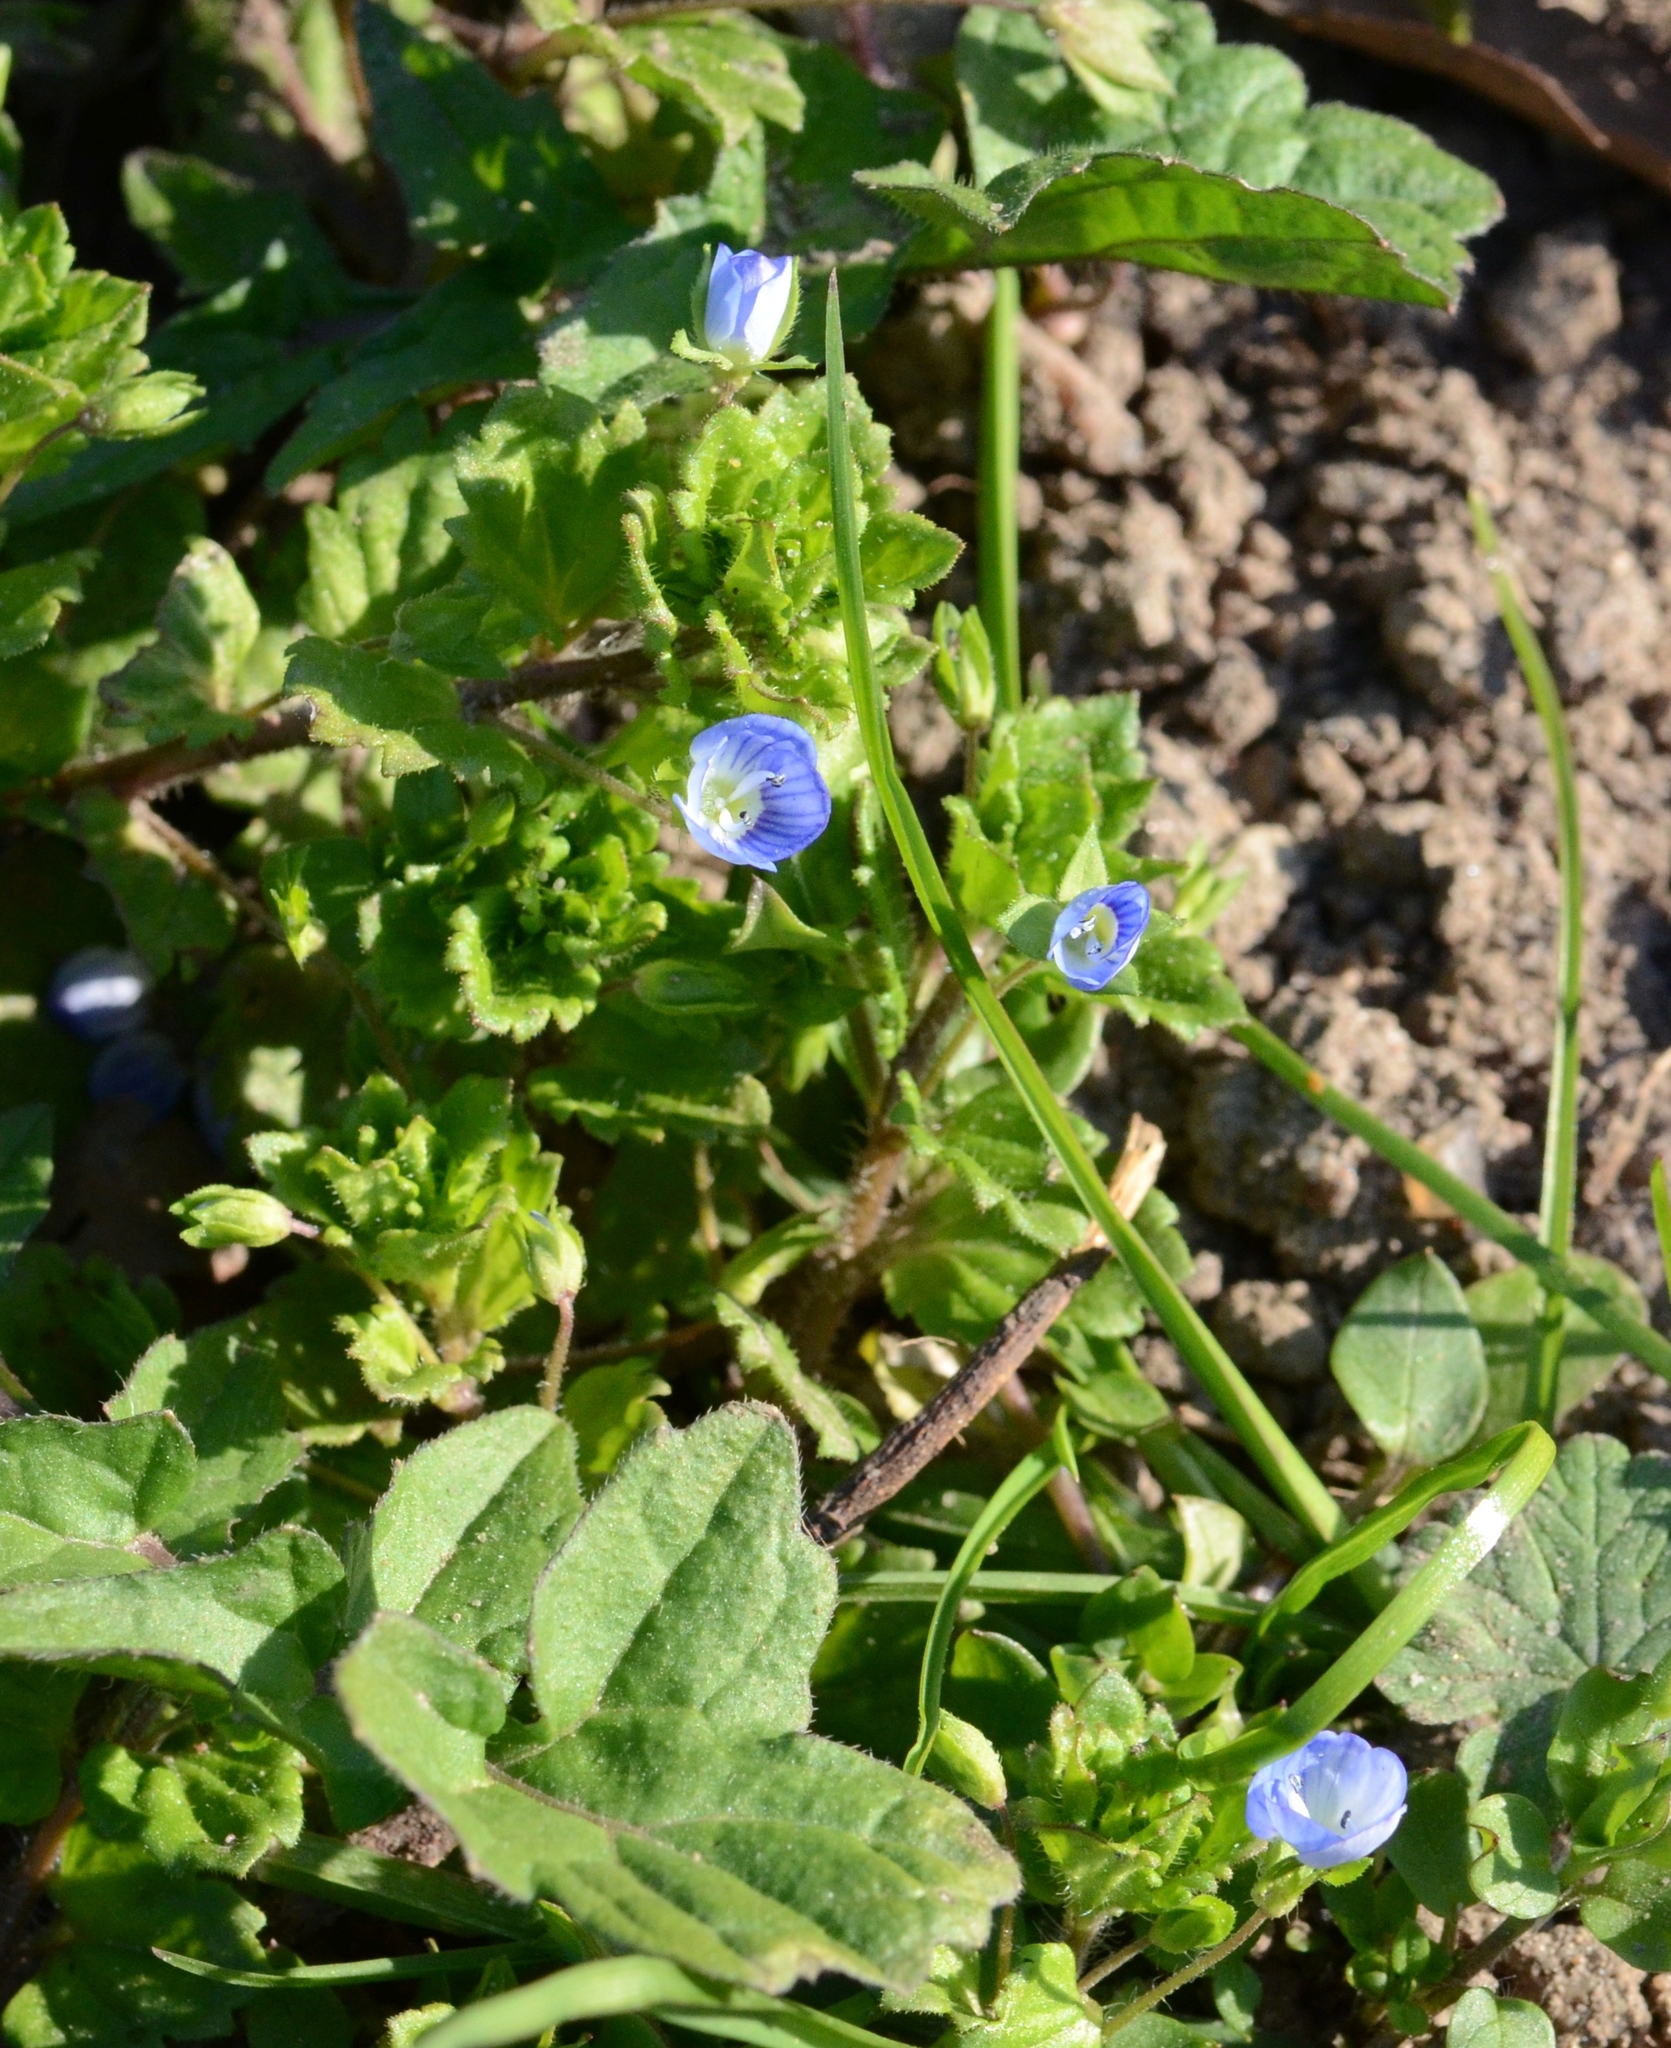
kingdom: Plantae
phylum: Tracheophyta
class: Magnoliopsida
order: Lamiales
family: Plantaginaceae
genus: Veronica
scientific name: Veronica persica
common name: Common field-speedwell
